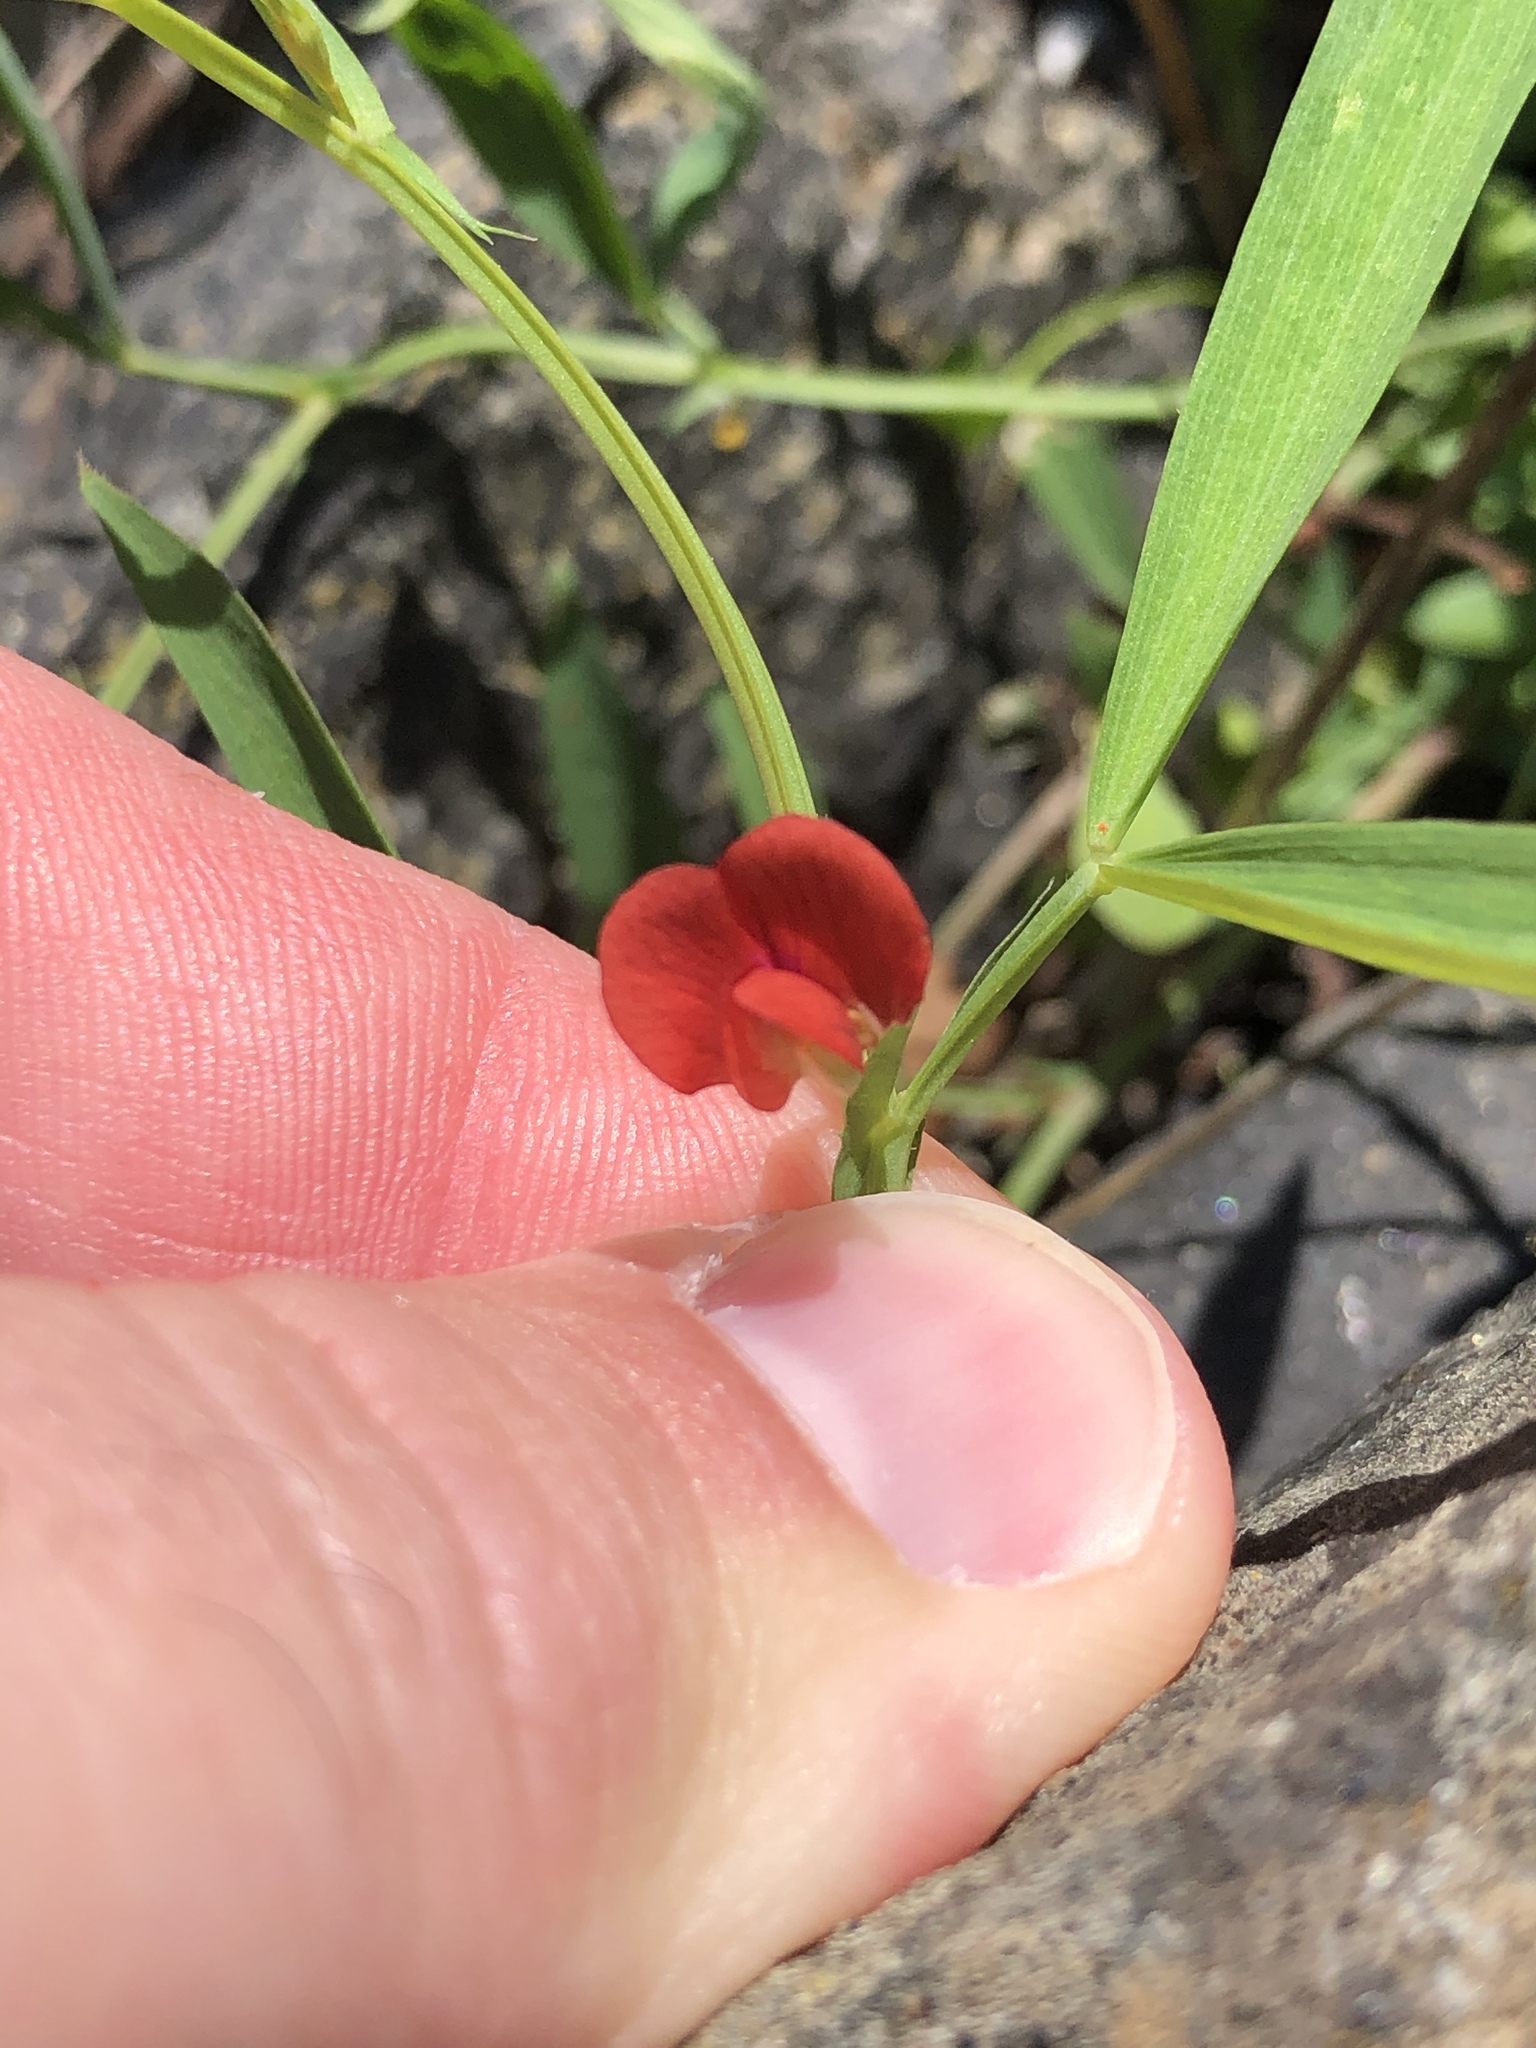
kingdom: Plantae
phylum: Tracheophyta
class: Magnoliopsida
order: Fabales
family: Fabaceae
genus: Lathyrus
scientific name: Lathyrus sphaericus
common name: Grass pea
